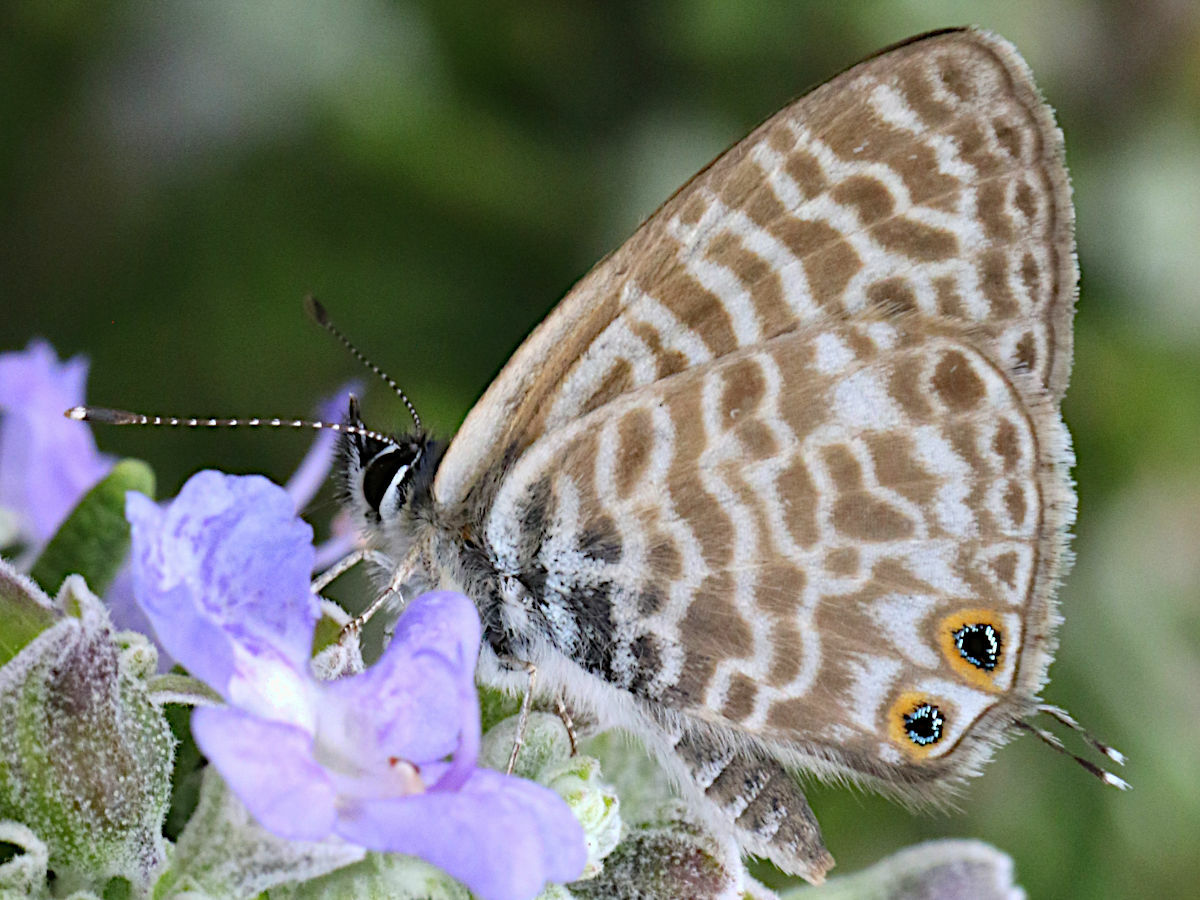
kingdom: Animalia
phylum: Arthropoda
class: Insecta
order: Lepidoptera
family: Lycaenidae
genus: Leptotes
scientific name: Leptotes pirithous
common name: Lang's short-tailed blue
